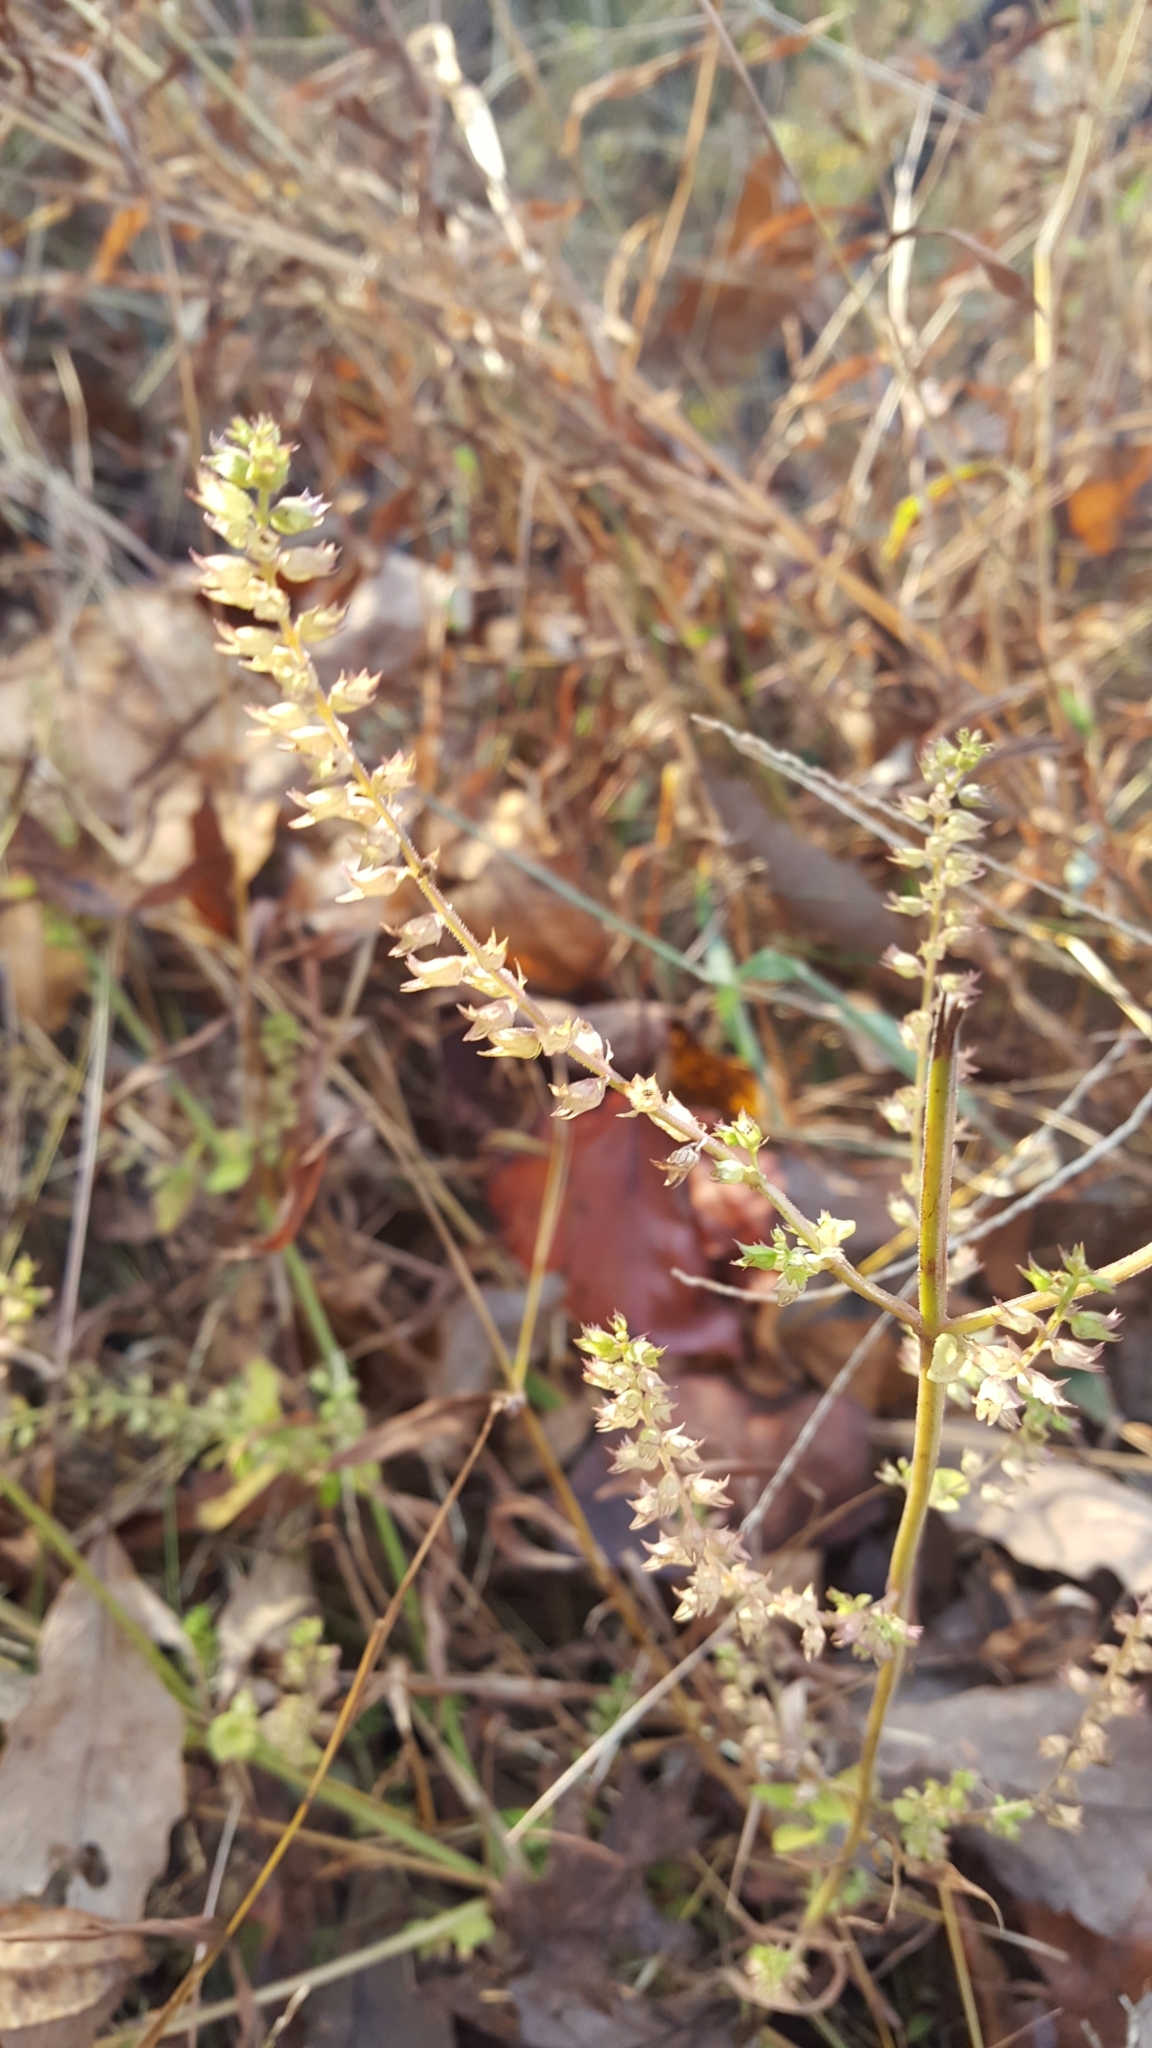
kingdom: Plantae
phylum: Tracheophyta
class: Magnoliopsida
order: Lamiales
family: Lamiaceae
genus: Perilla
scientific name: Perilla frutescens
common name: Perilla
